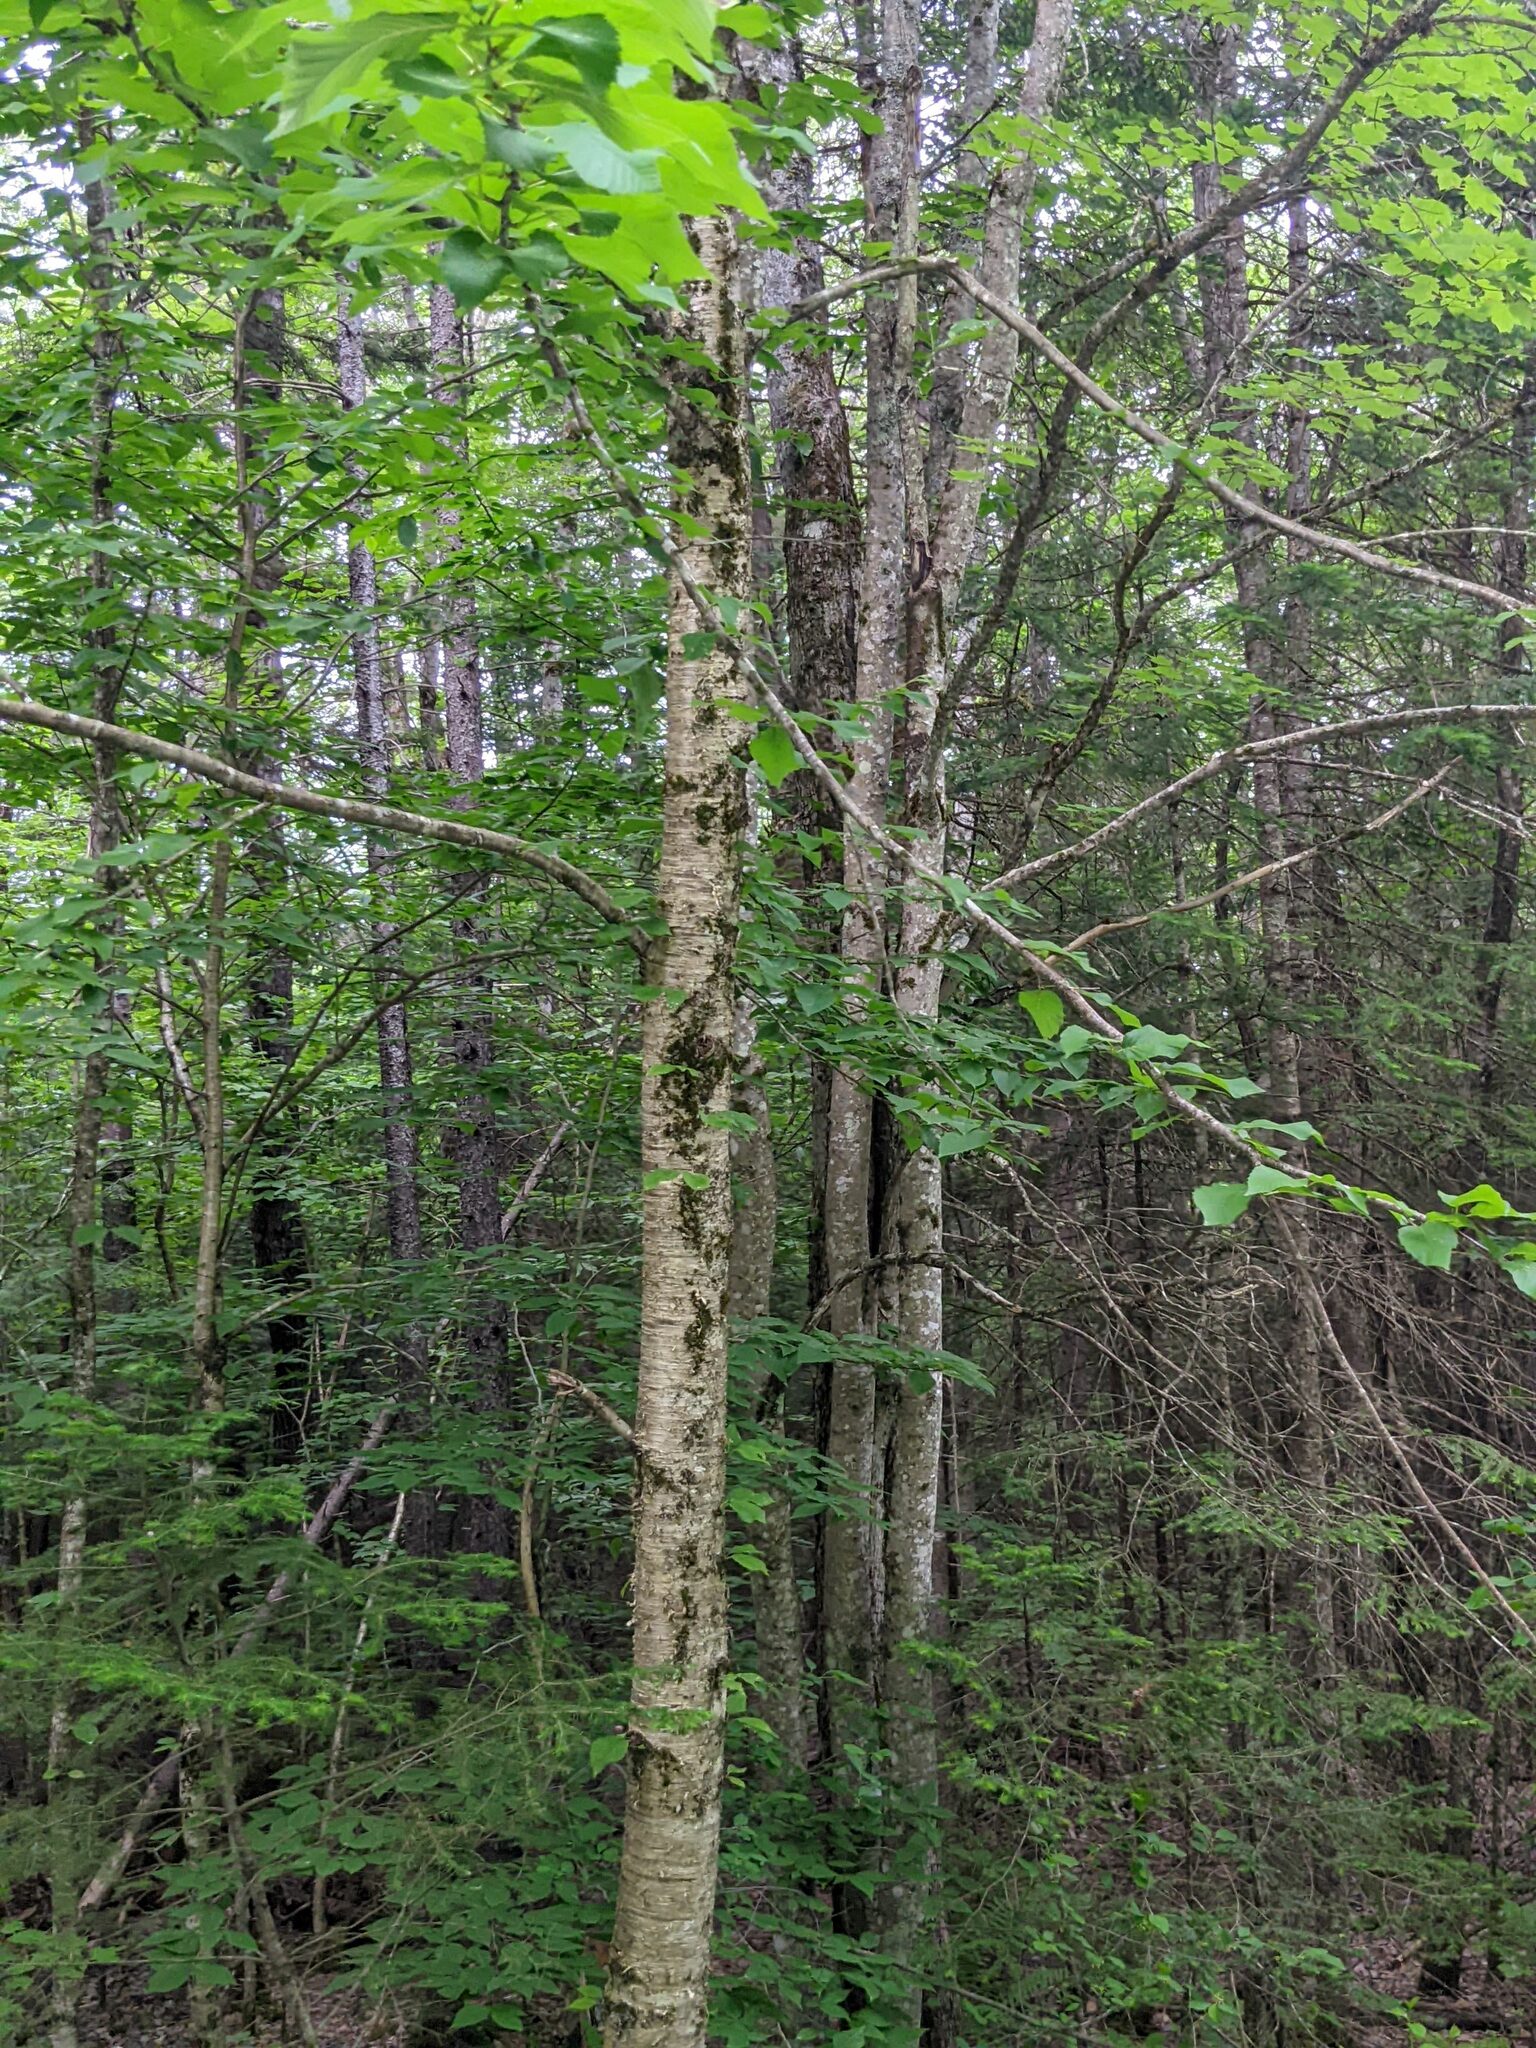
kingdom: Plantae
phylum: Tracheophyta
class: Magnoliopsida
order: Fagales
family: Betulaceae
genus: Betula
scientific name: Betula alleghaniensis
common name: Yellow birch
